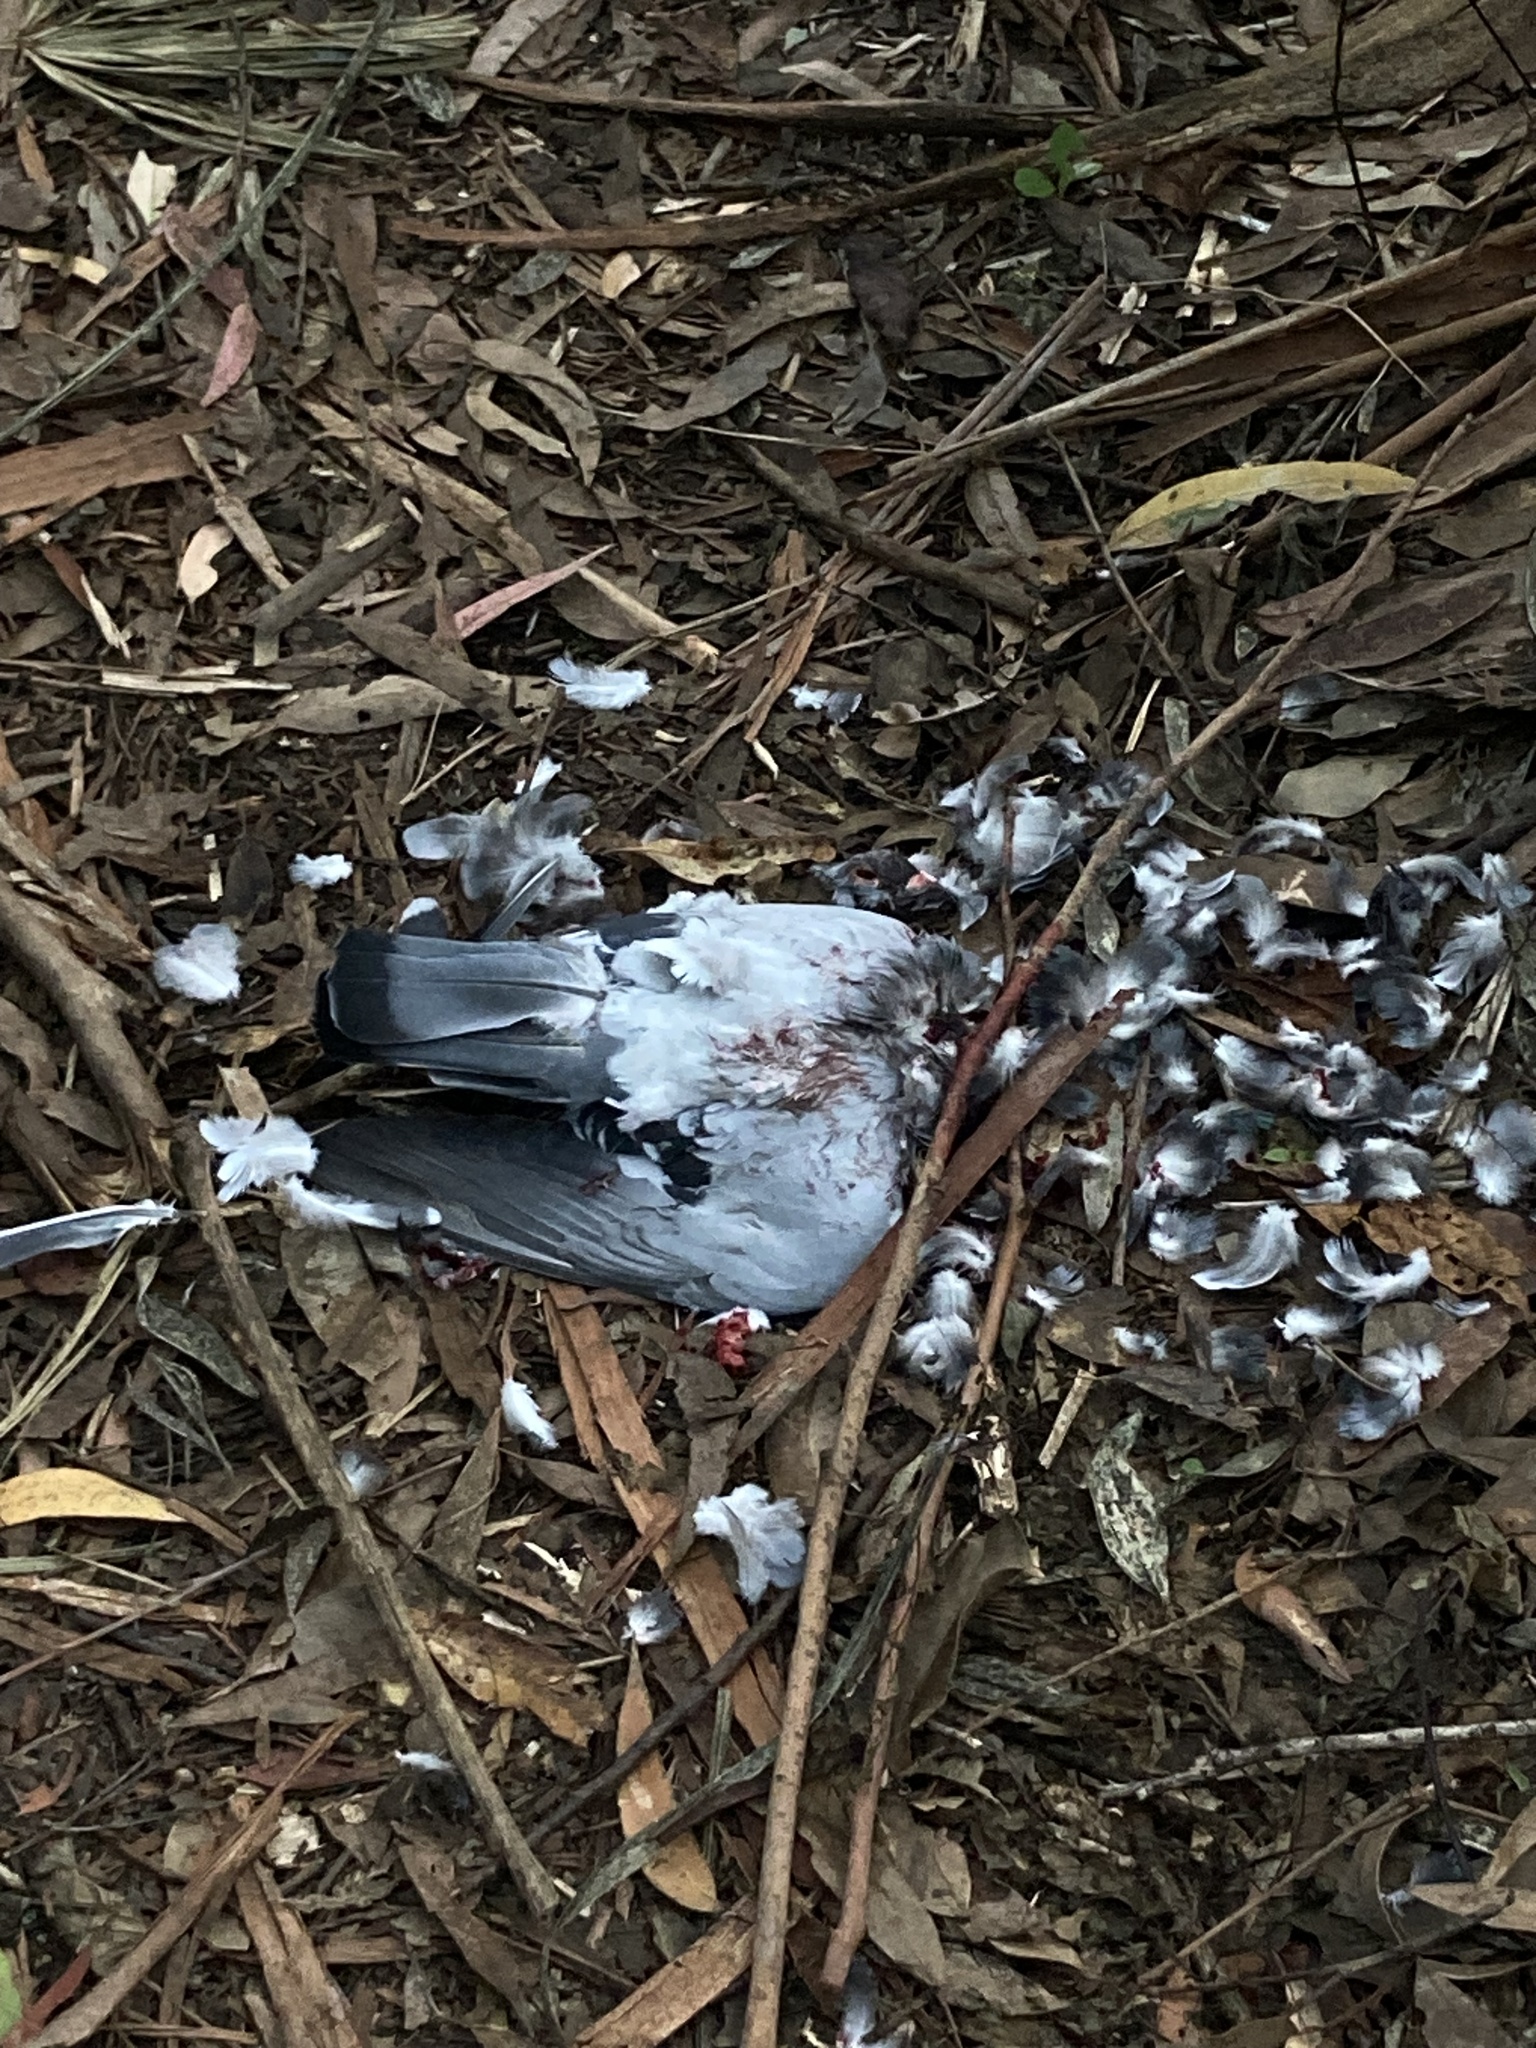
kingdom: Animalia
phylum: Chordata
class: Aves
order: Columbiformes
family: Columbidae
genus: Columba
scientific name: Columba livia
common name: Rock pigeon
